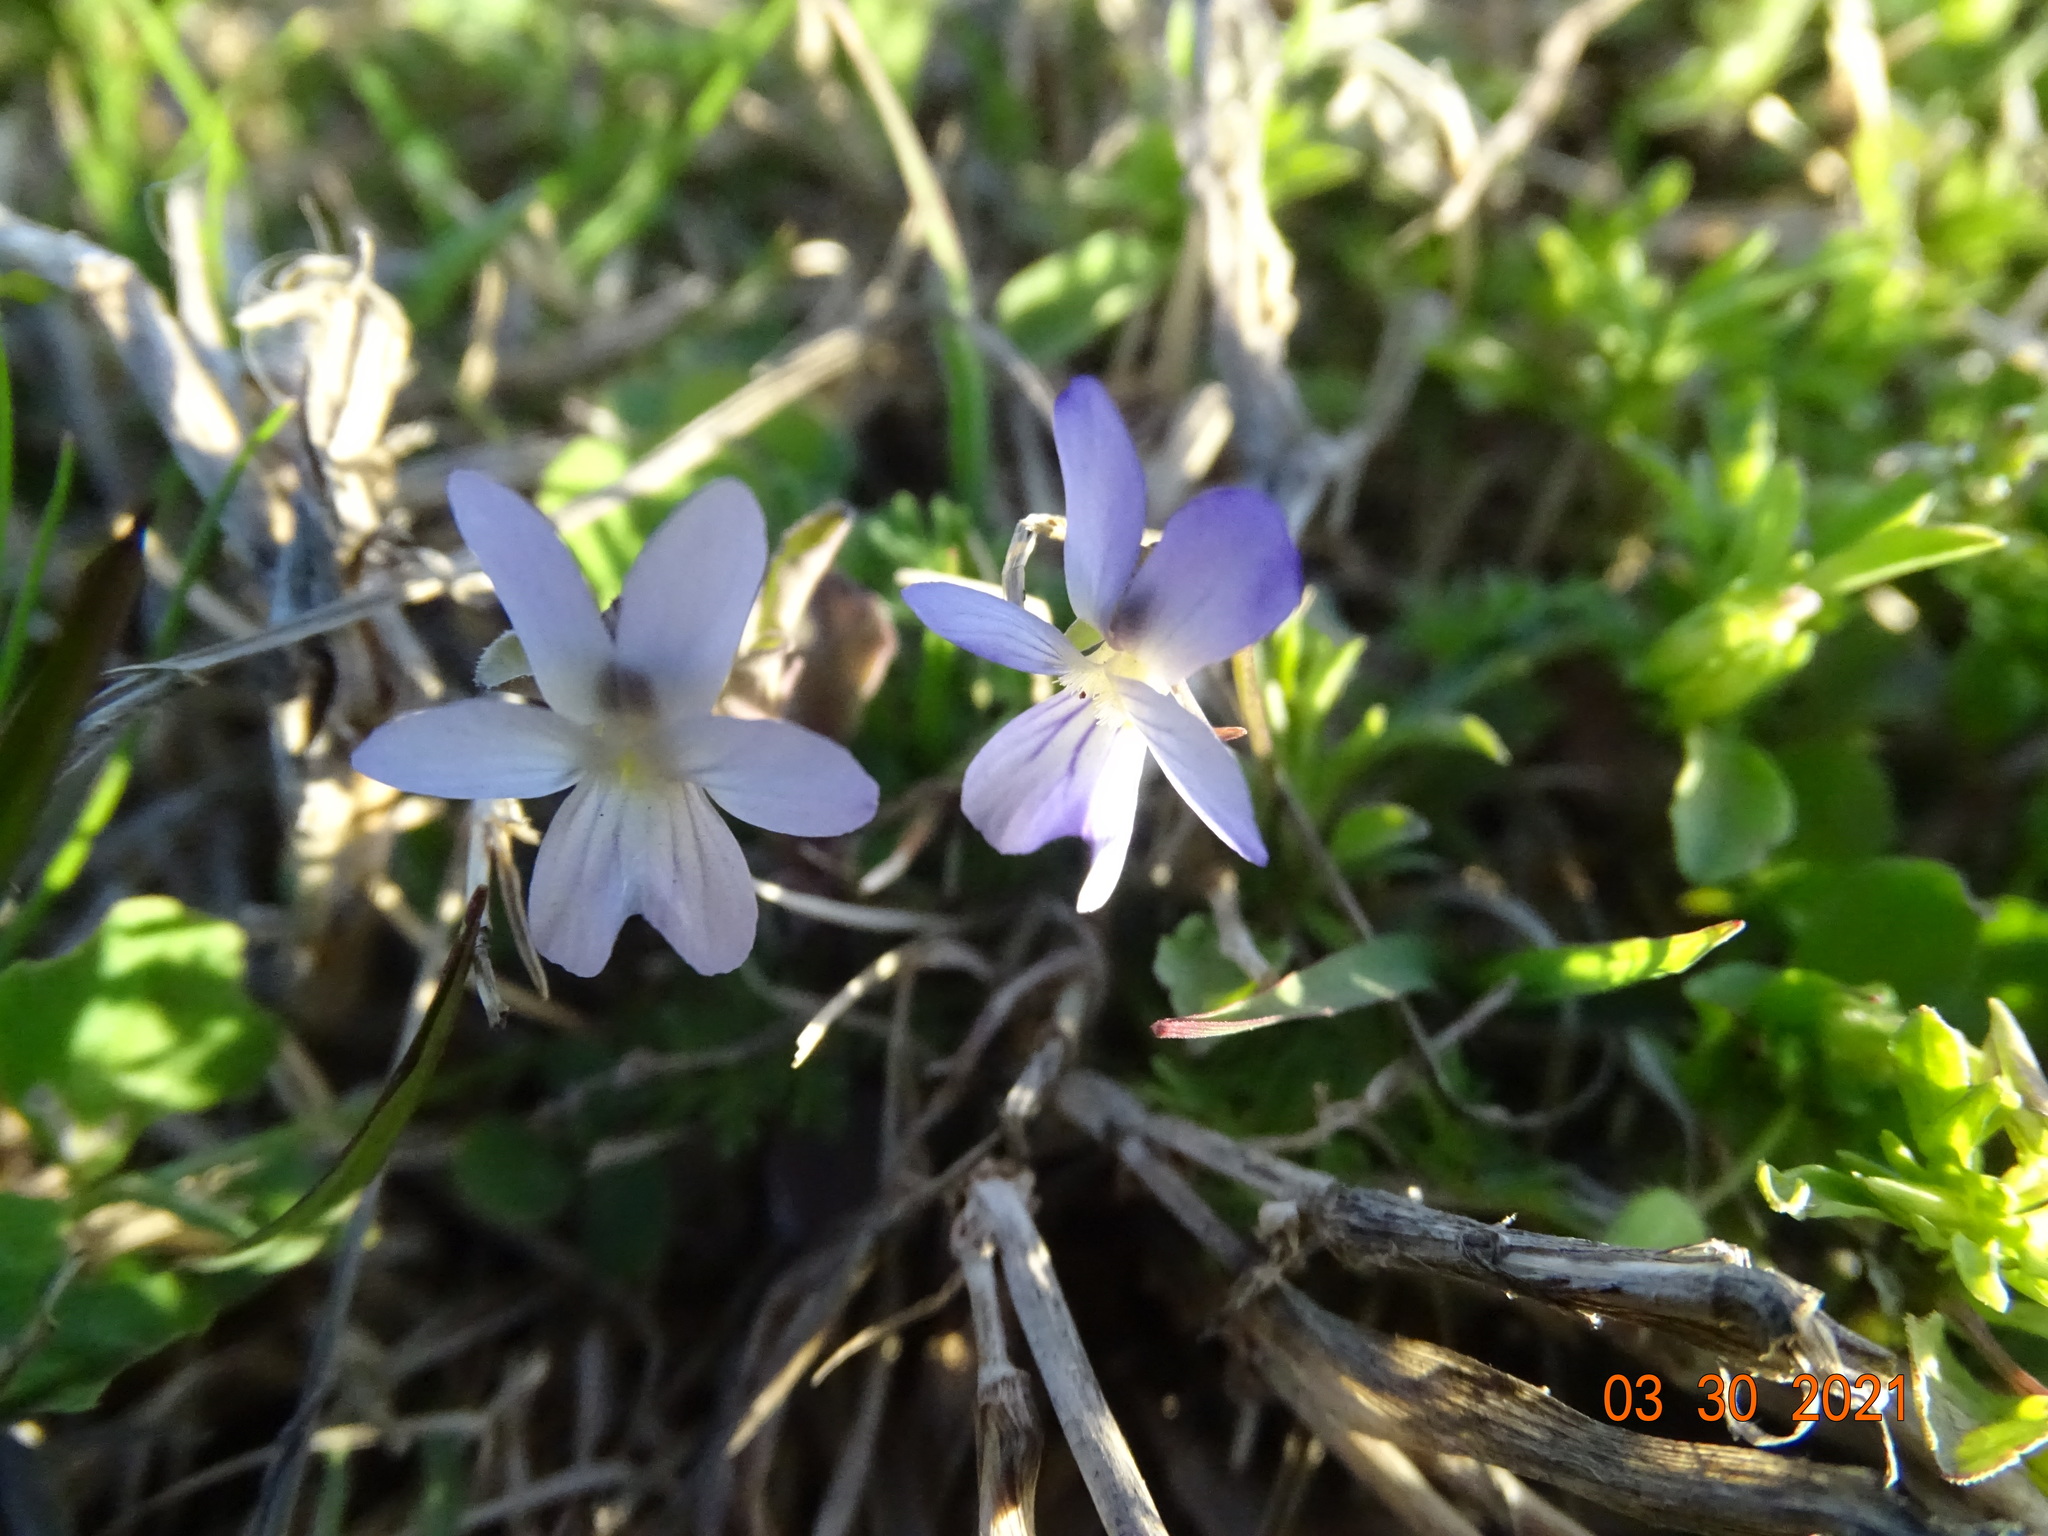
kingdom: Plantae
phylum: Tracheophyta
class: Magnoliopsida
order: Malpighiales
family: Violaceae
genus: Viola
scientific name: Viola rafinesquei
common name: American field pansy
